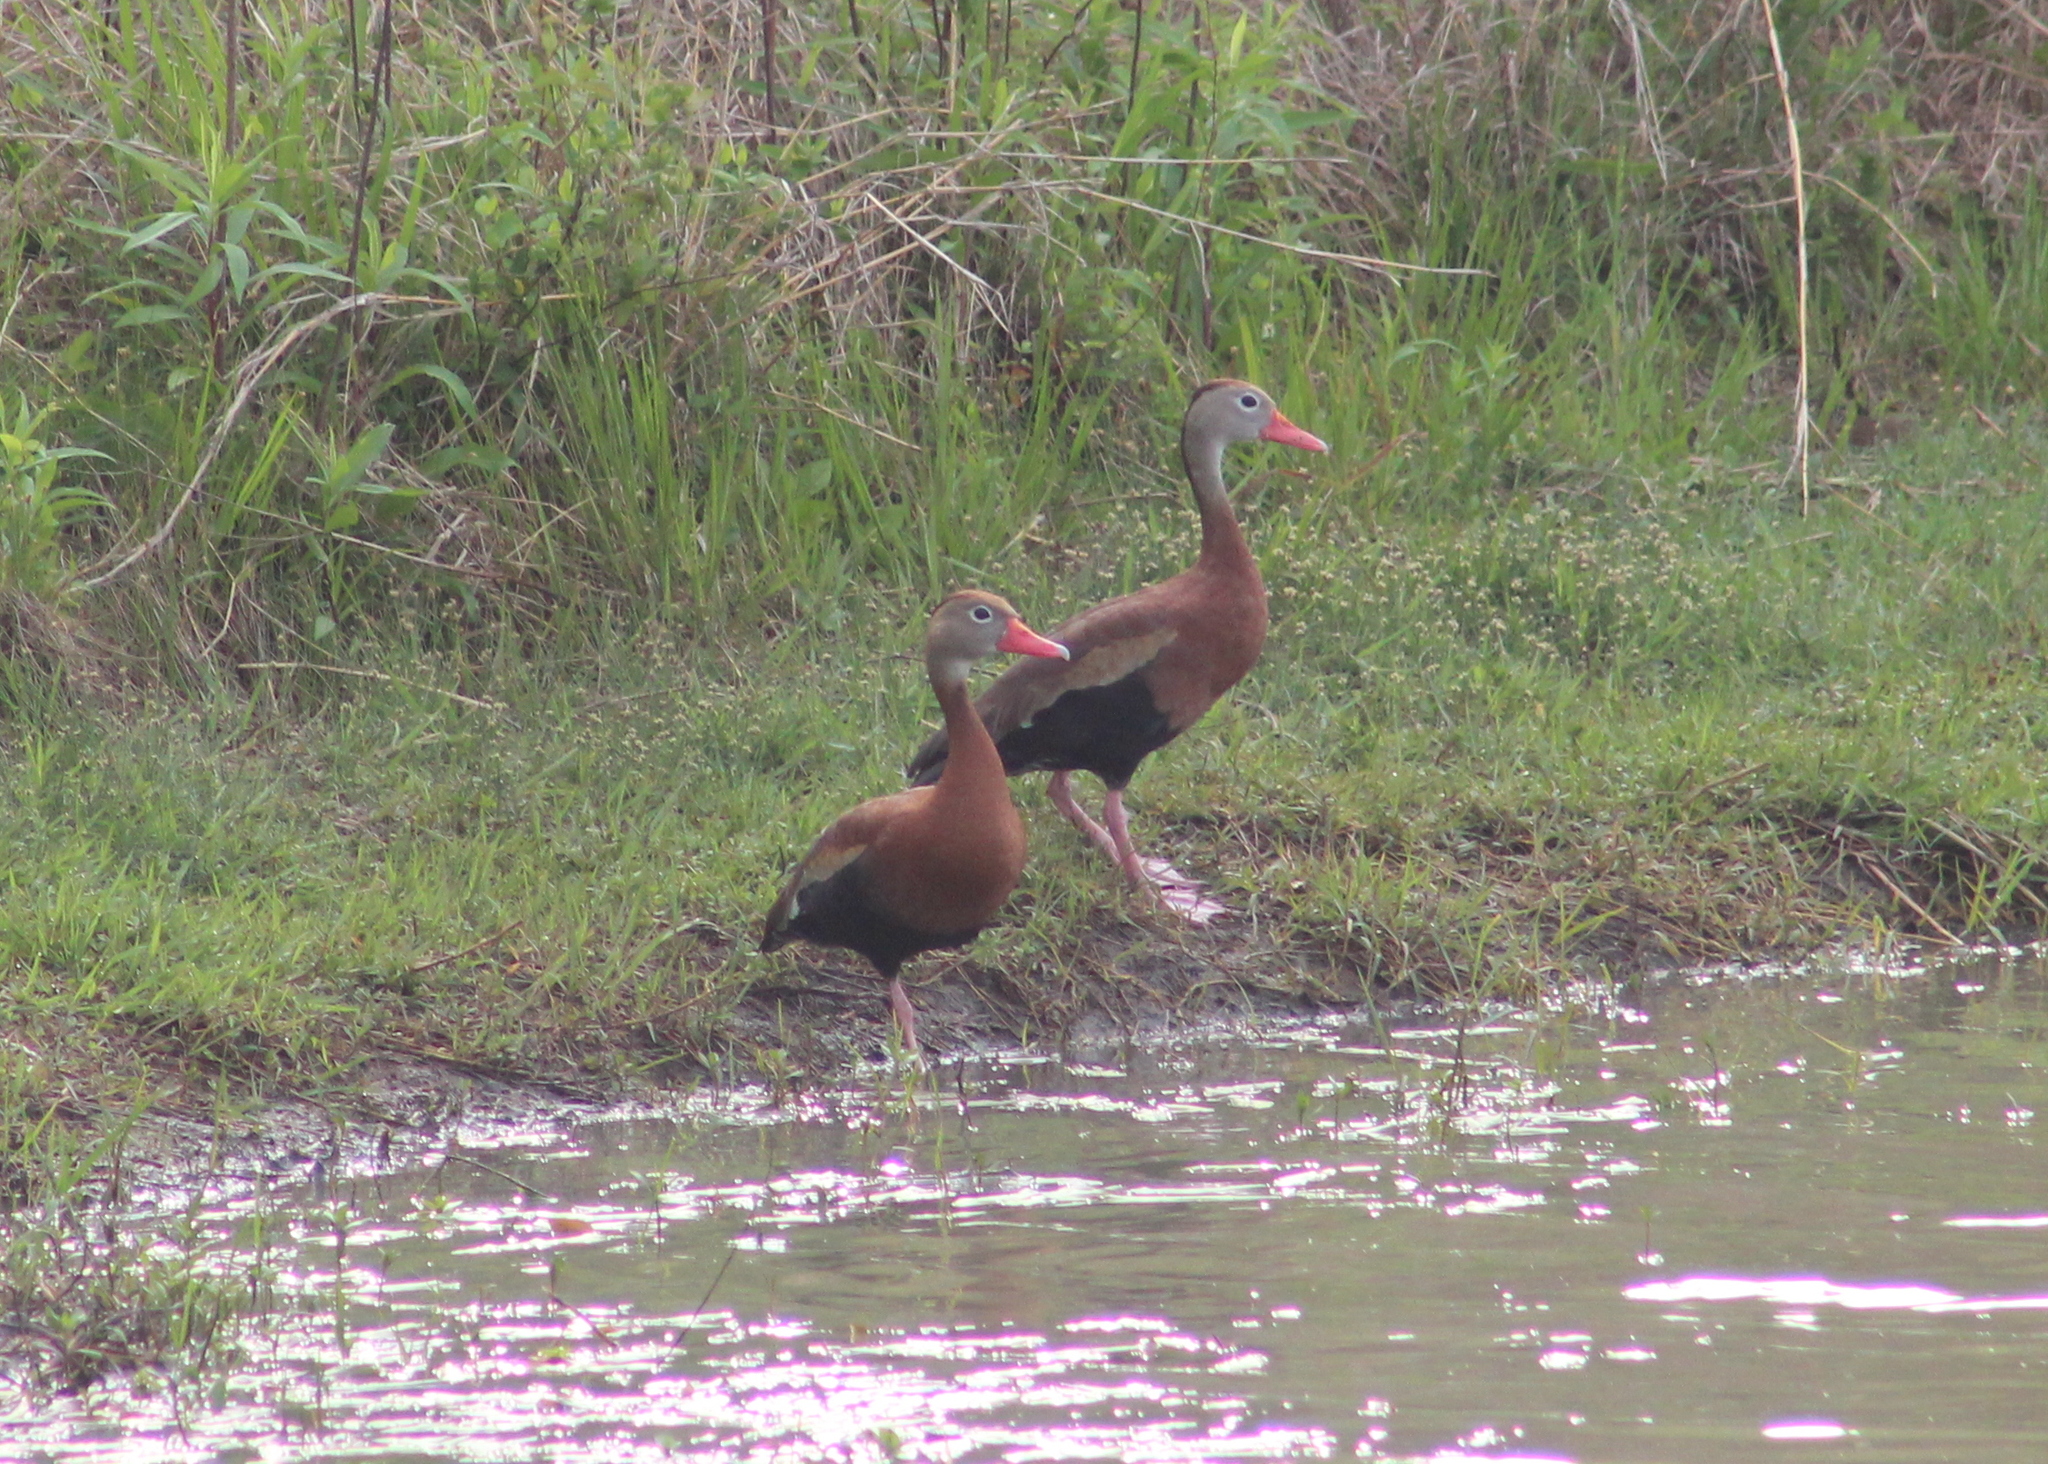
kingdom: Animalia
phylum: Chordata
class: Aves
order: Anseriformes
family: Anatidae
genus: Dendrocygna
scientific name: Dendrocygna autumnalis
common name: Black-bellied whistling duck
